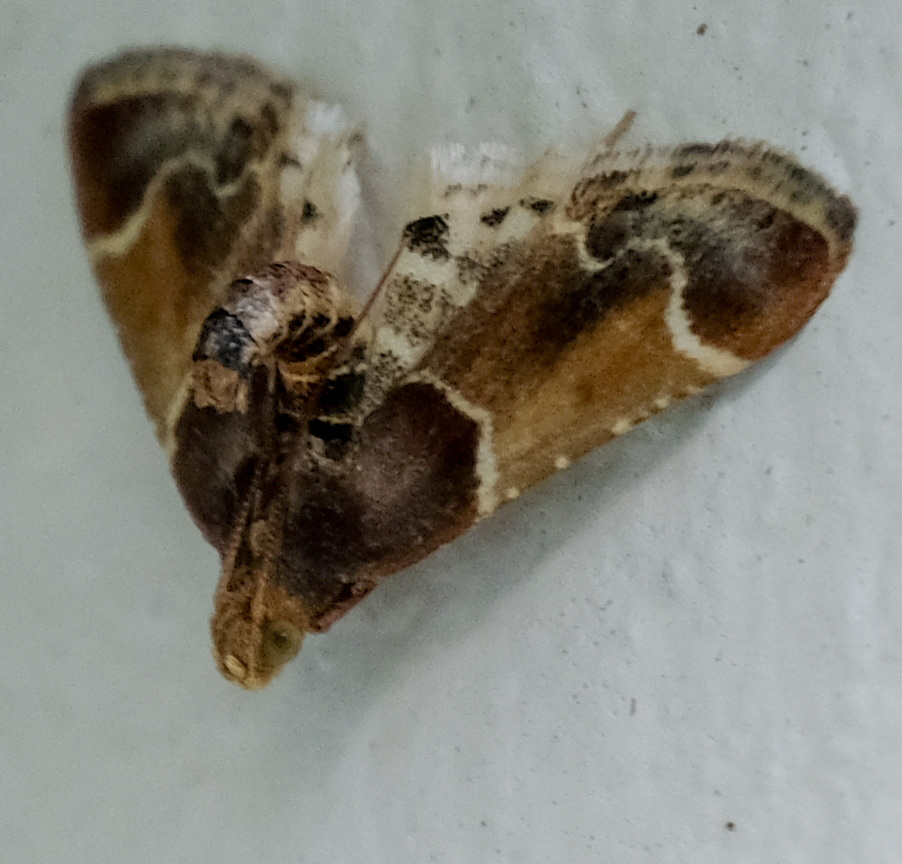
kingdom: Animalia
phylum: Arthropoda
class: Insecta
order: Lepidoptera
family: Pyralidae
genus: Pyralis
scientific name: Pyralis farinalis
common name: Meal moth
